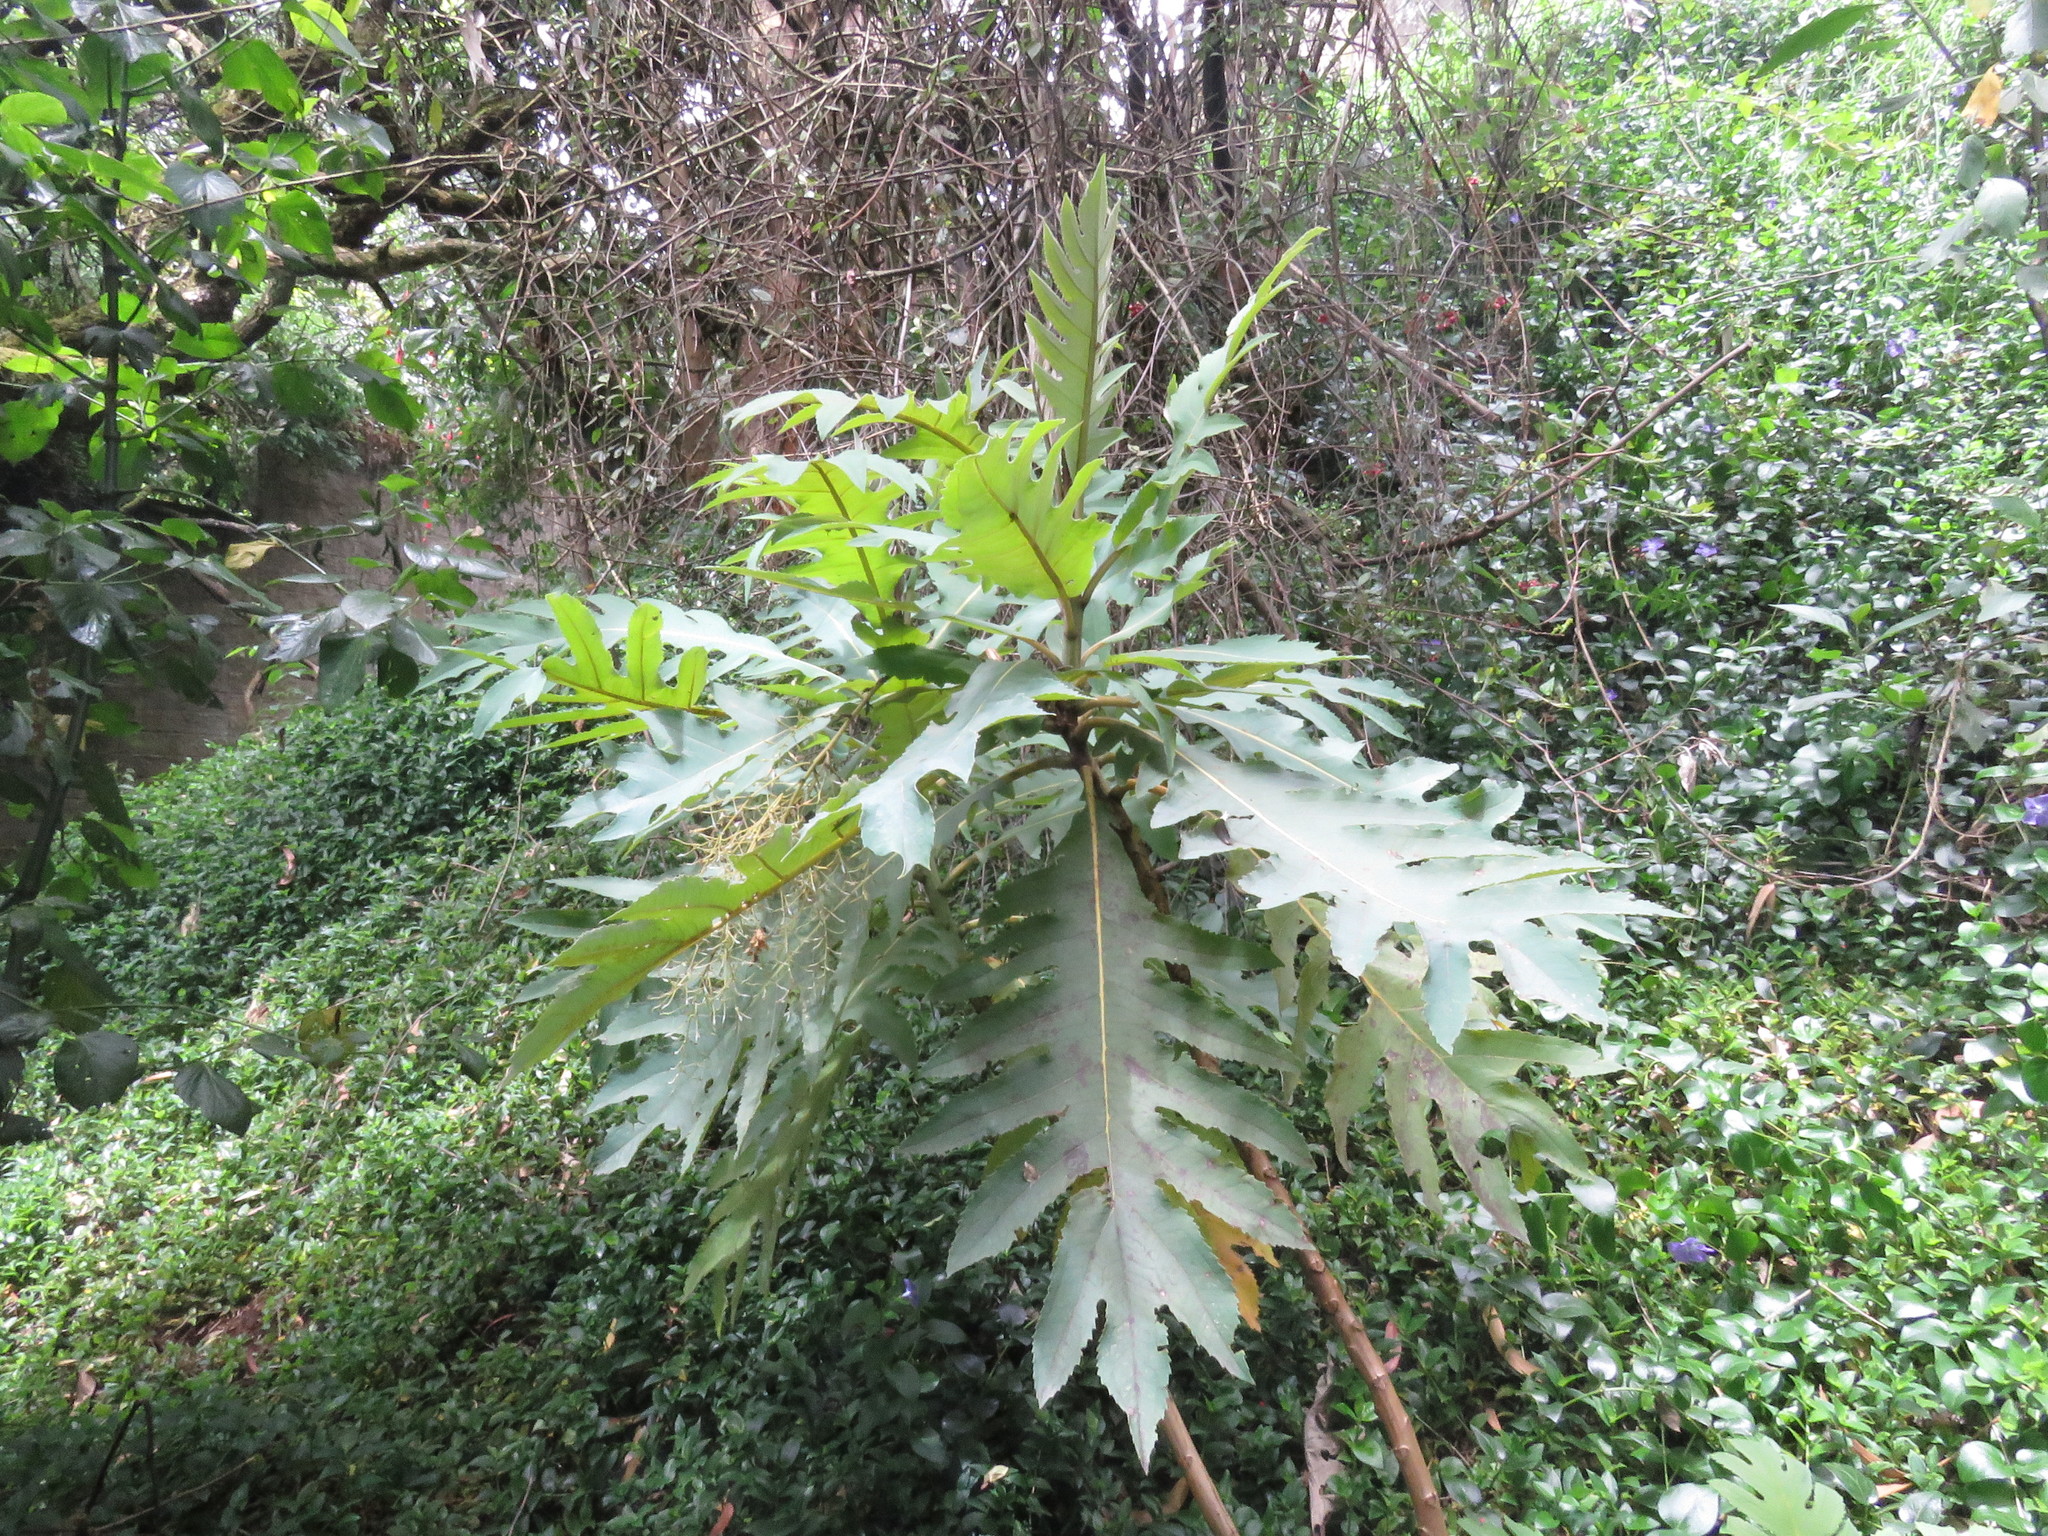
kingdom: Plantae
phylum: Tracheophyta
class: Magnoliopsida
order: Ranunculales
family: Papaveraceae
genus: Bocconia
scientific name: Bocconia frutescens
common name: Tree poppy
